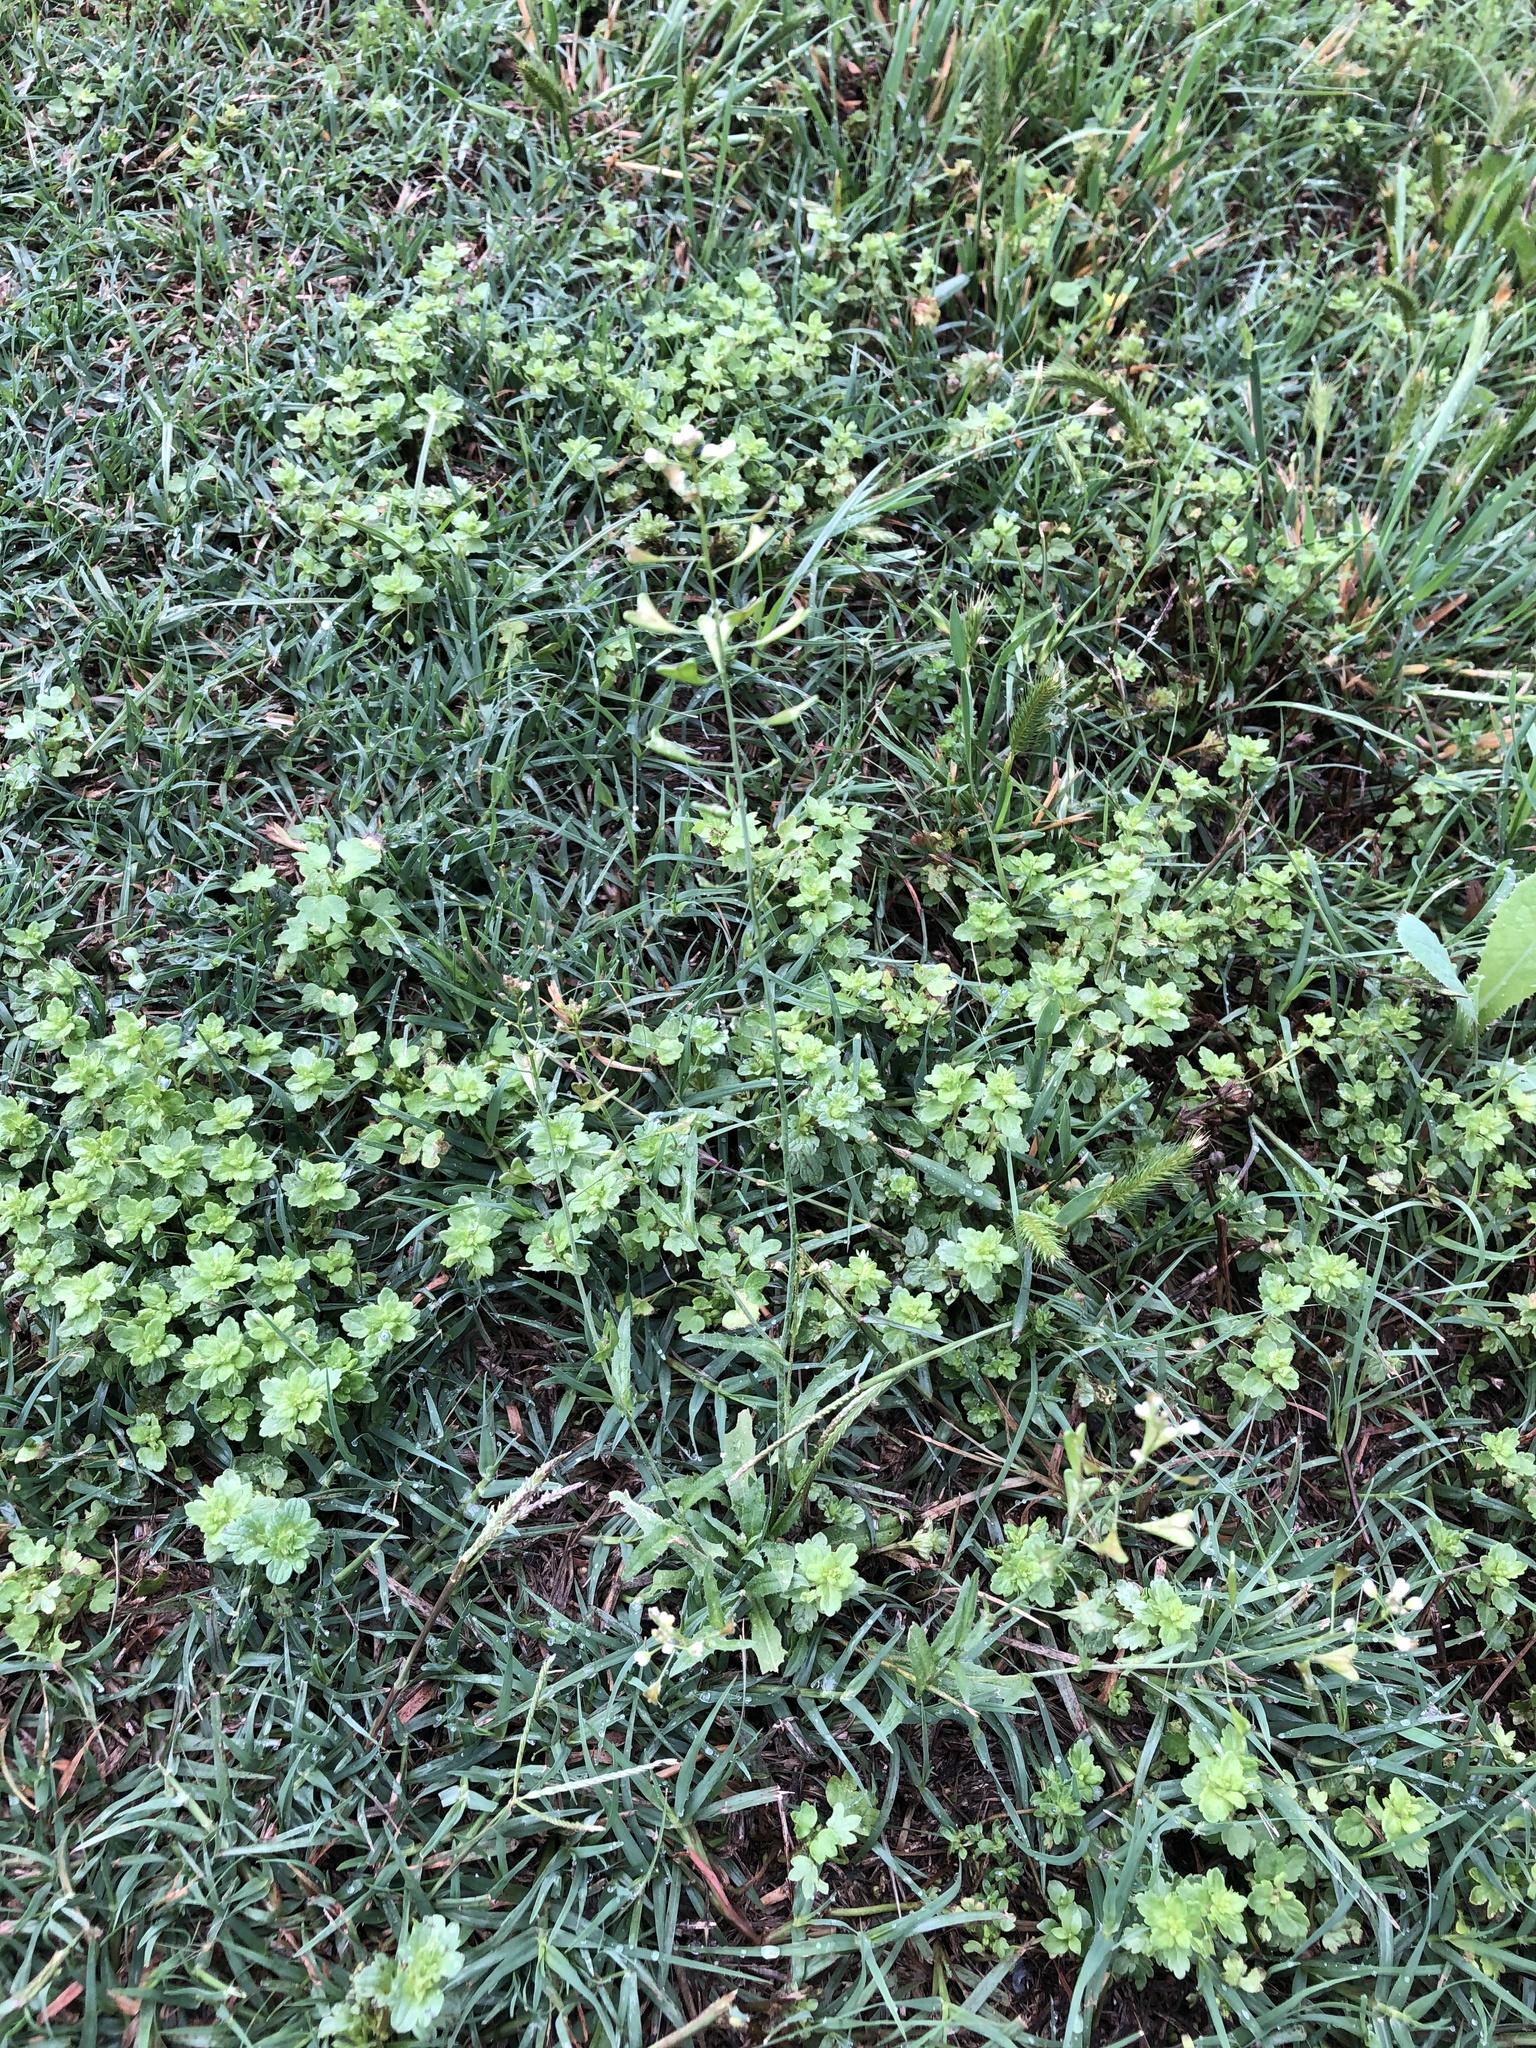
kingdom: Plantae
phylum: Tracheophyta
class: Magnoliopsida
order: Brassicales
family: Brassicaceae
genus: Capsella
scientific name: Capsella bursa-pastoris
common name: Shepherd's purse
